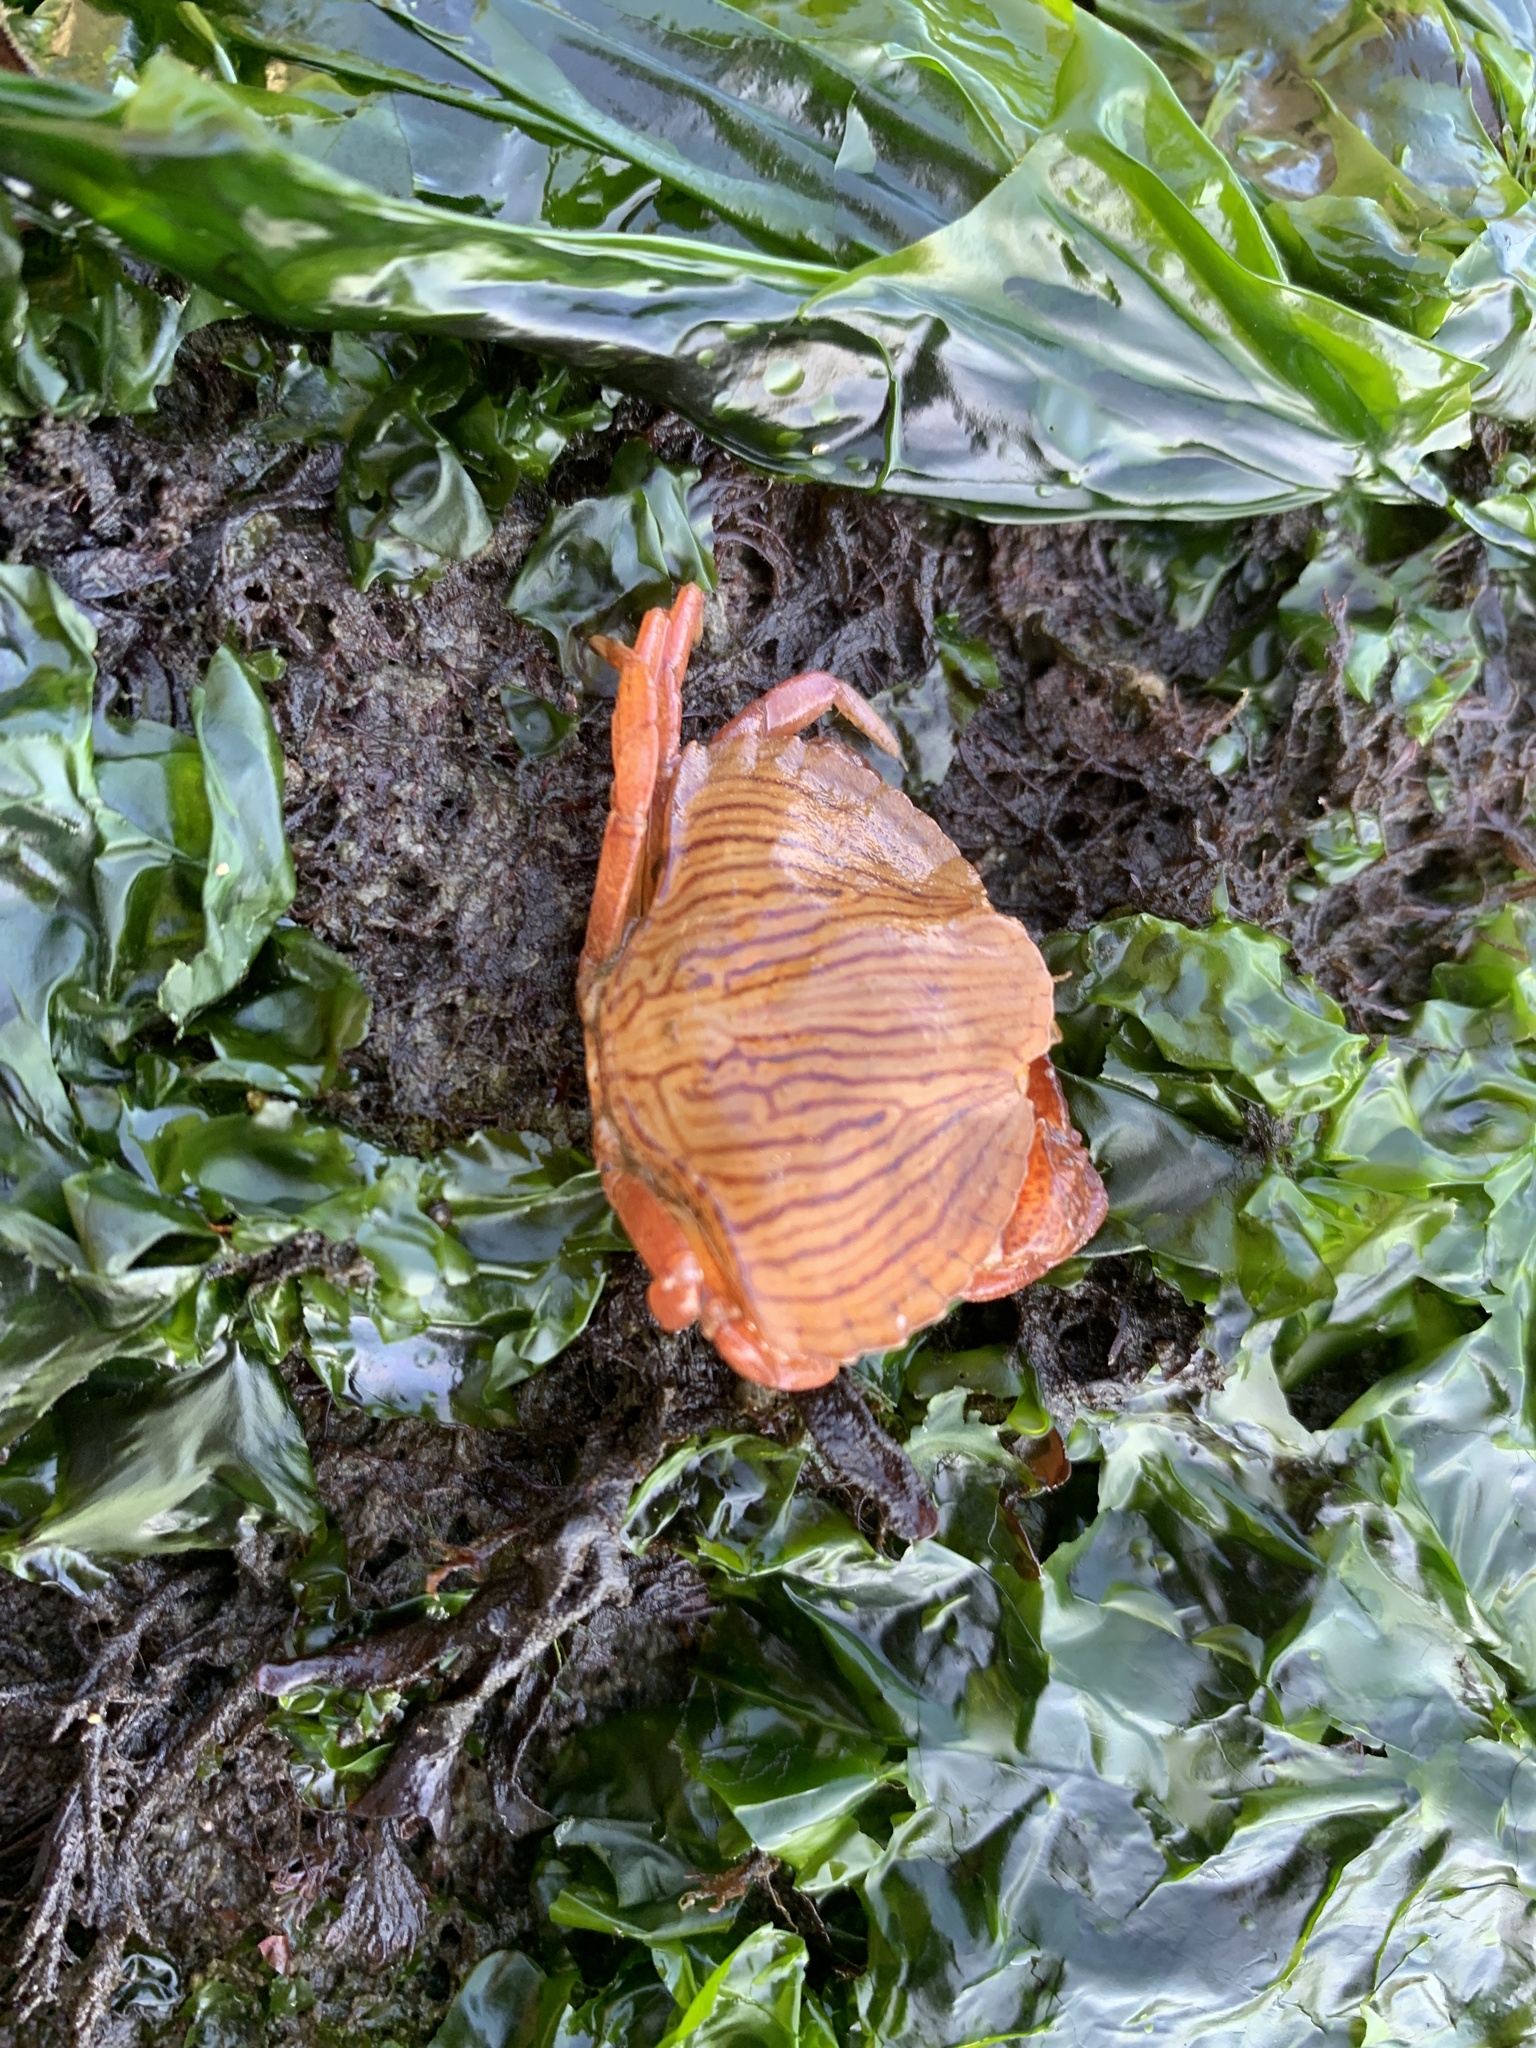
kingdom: Animalia
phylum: Arthropoda
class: Malacostraca
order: Decapoda
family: Cancridae
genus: Cancer
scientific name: Cancer productus
